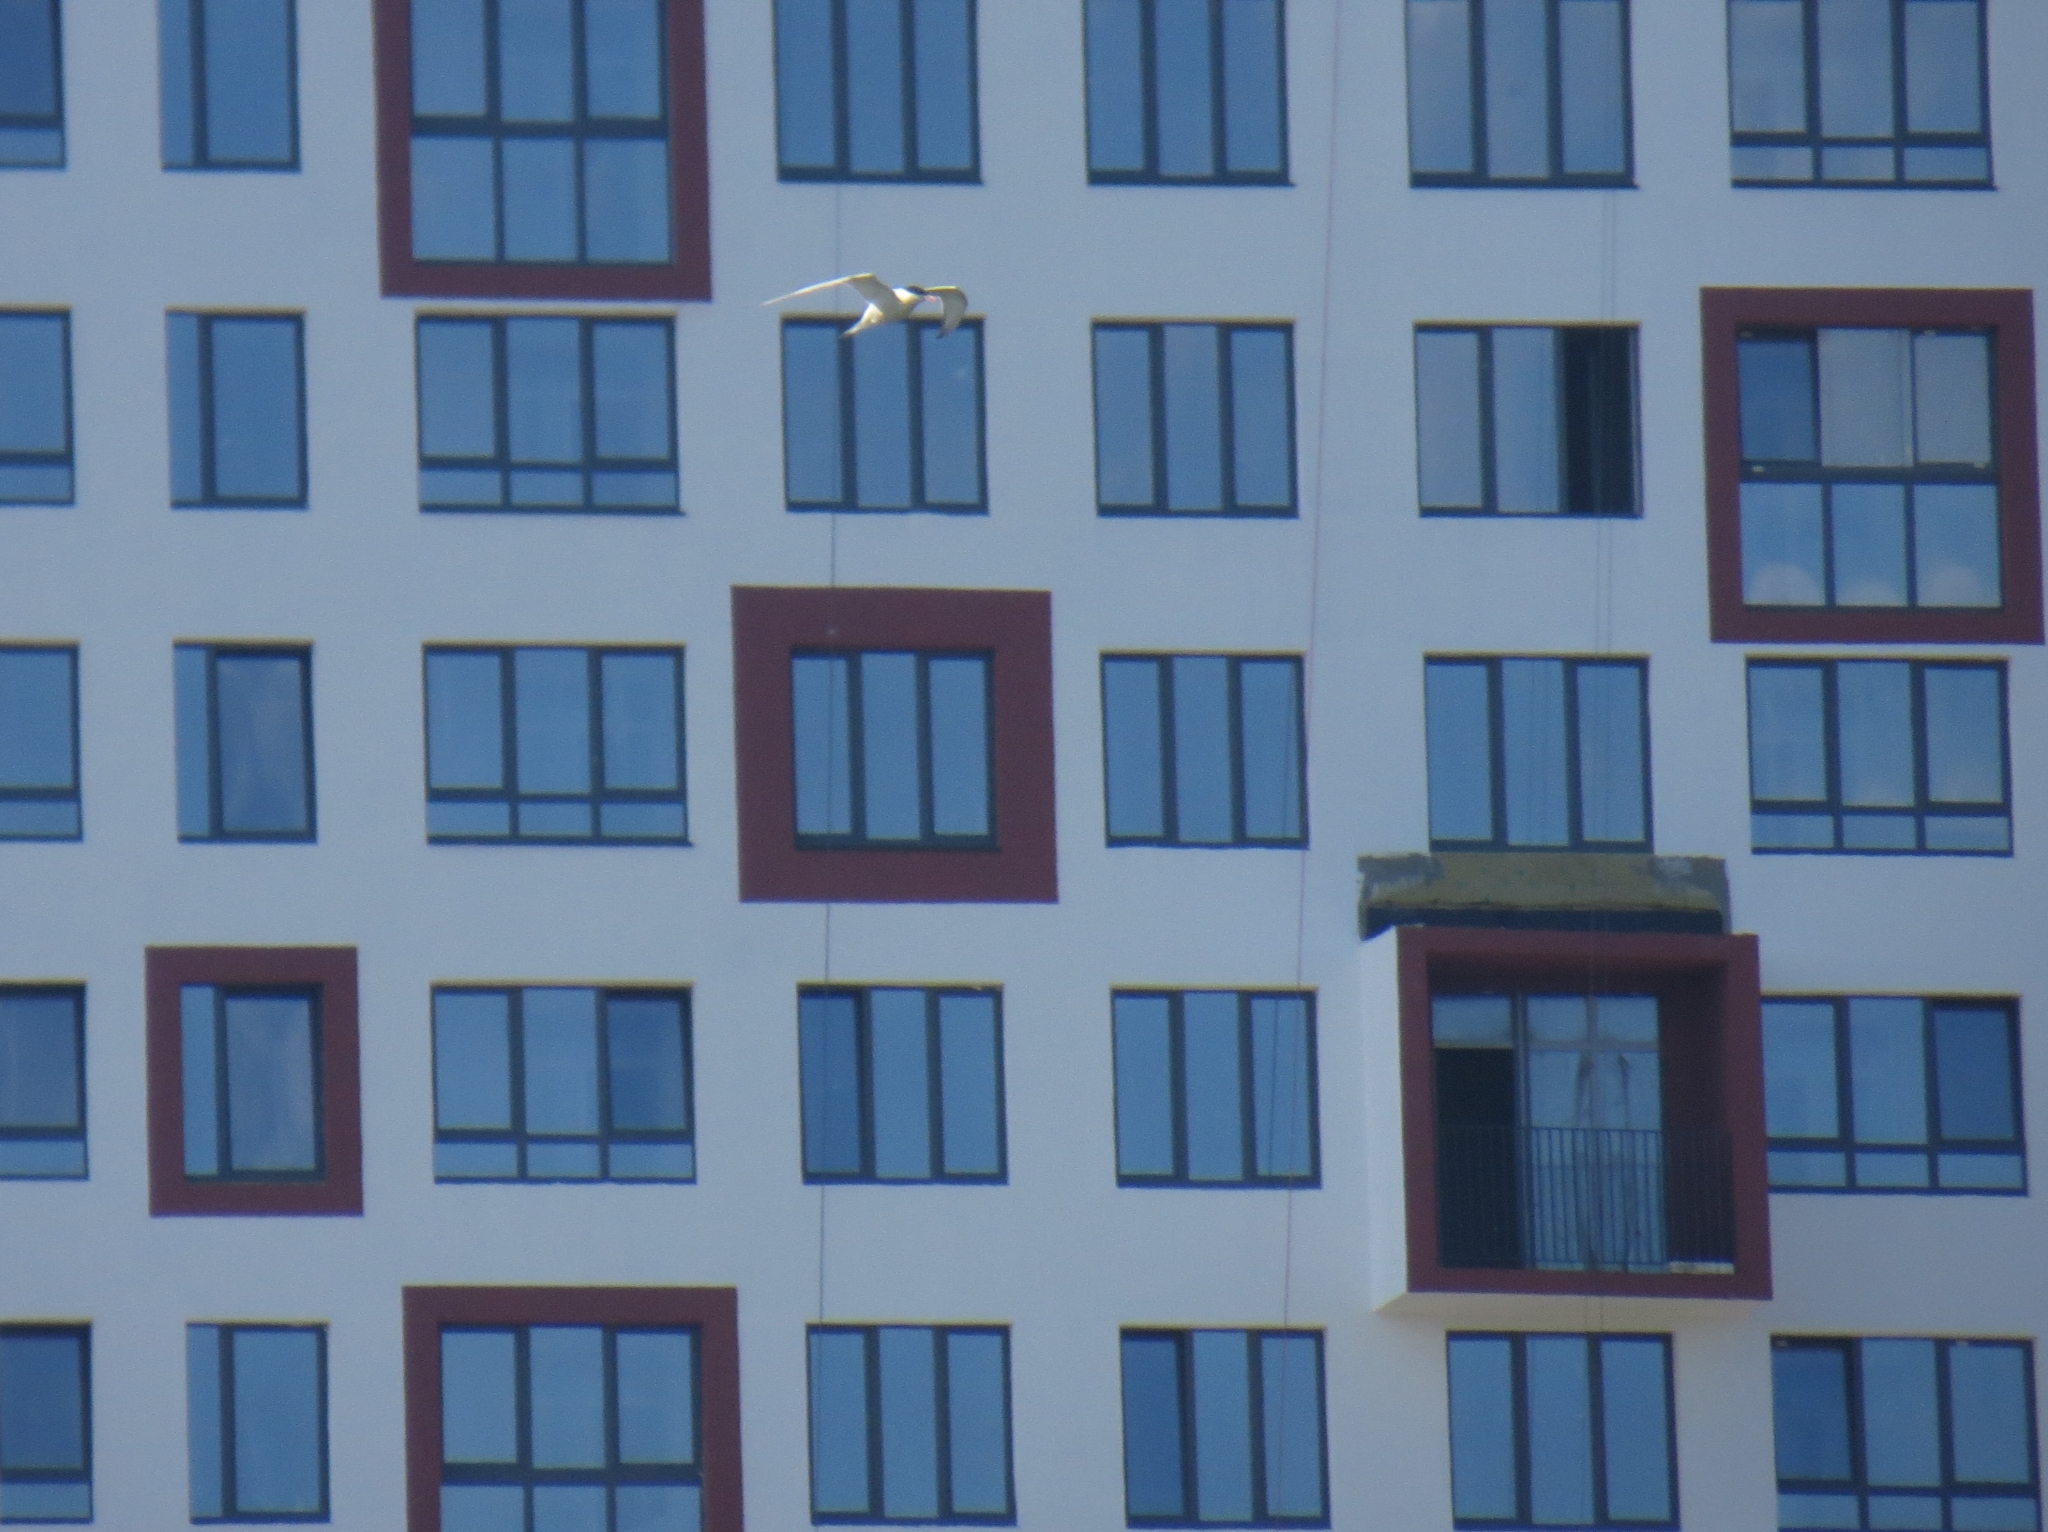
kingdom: Animalia
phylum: Chordata
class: Aves
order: Charadriiformes
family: Laridae
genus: Sterna
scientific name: Sterna hirundo
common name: Common tern
